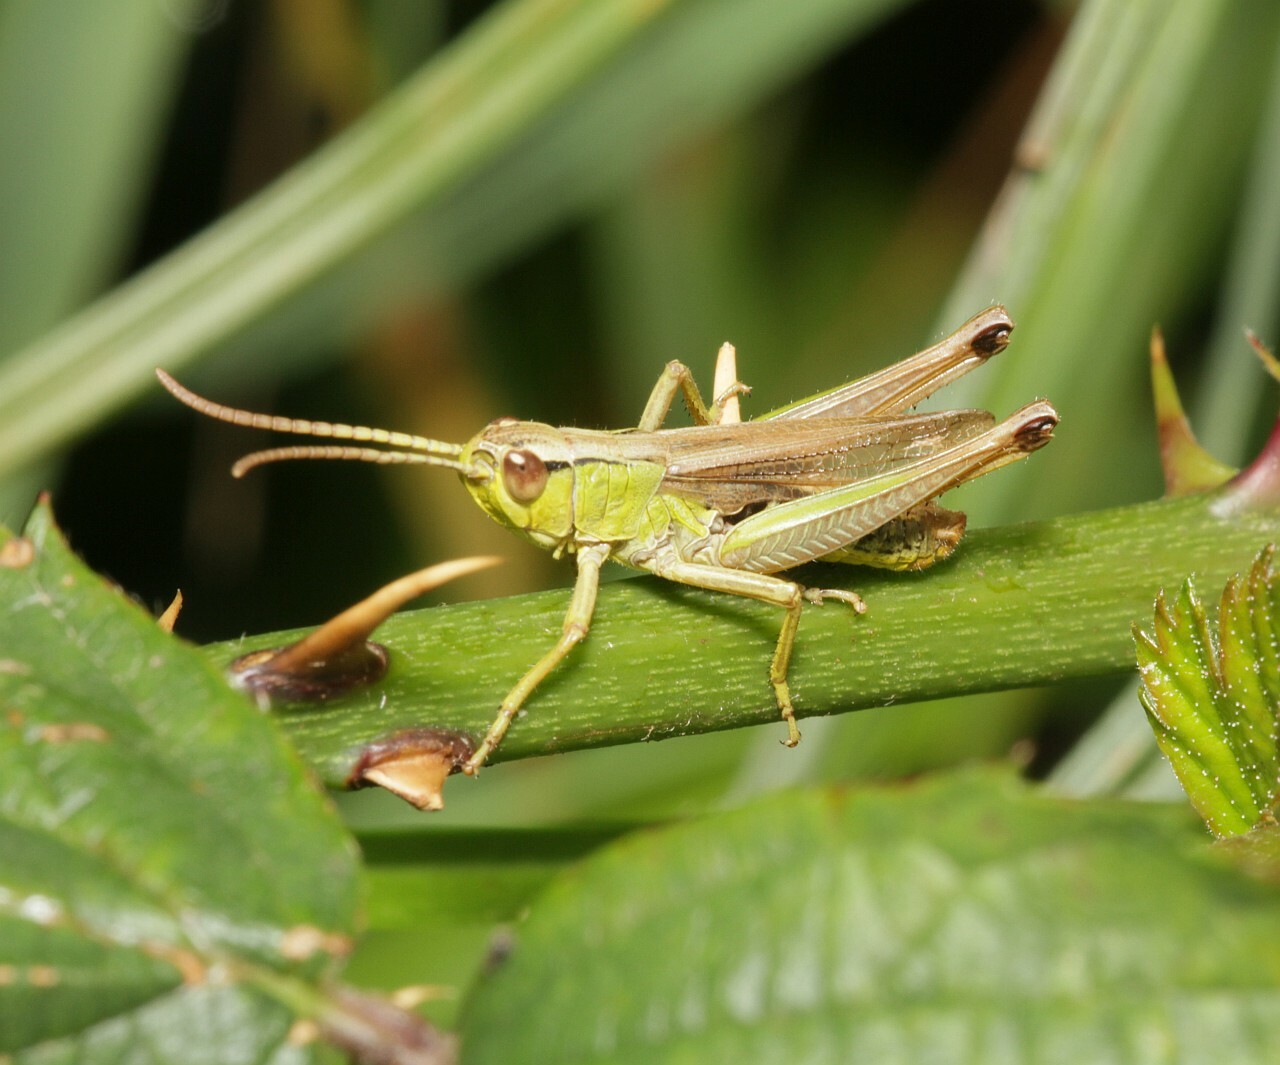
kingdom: Animalia
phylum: Arthropoda
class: Insecta
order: Orthoptera
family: Acrididae
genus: Pseudochorthippus
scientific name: Pseudochorthippus parallelus
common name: Meadow grasshopper
